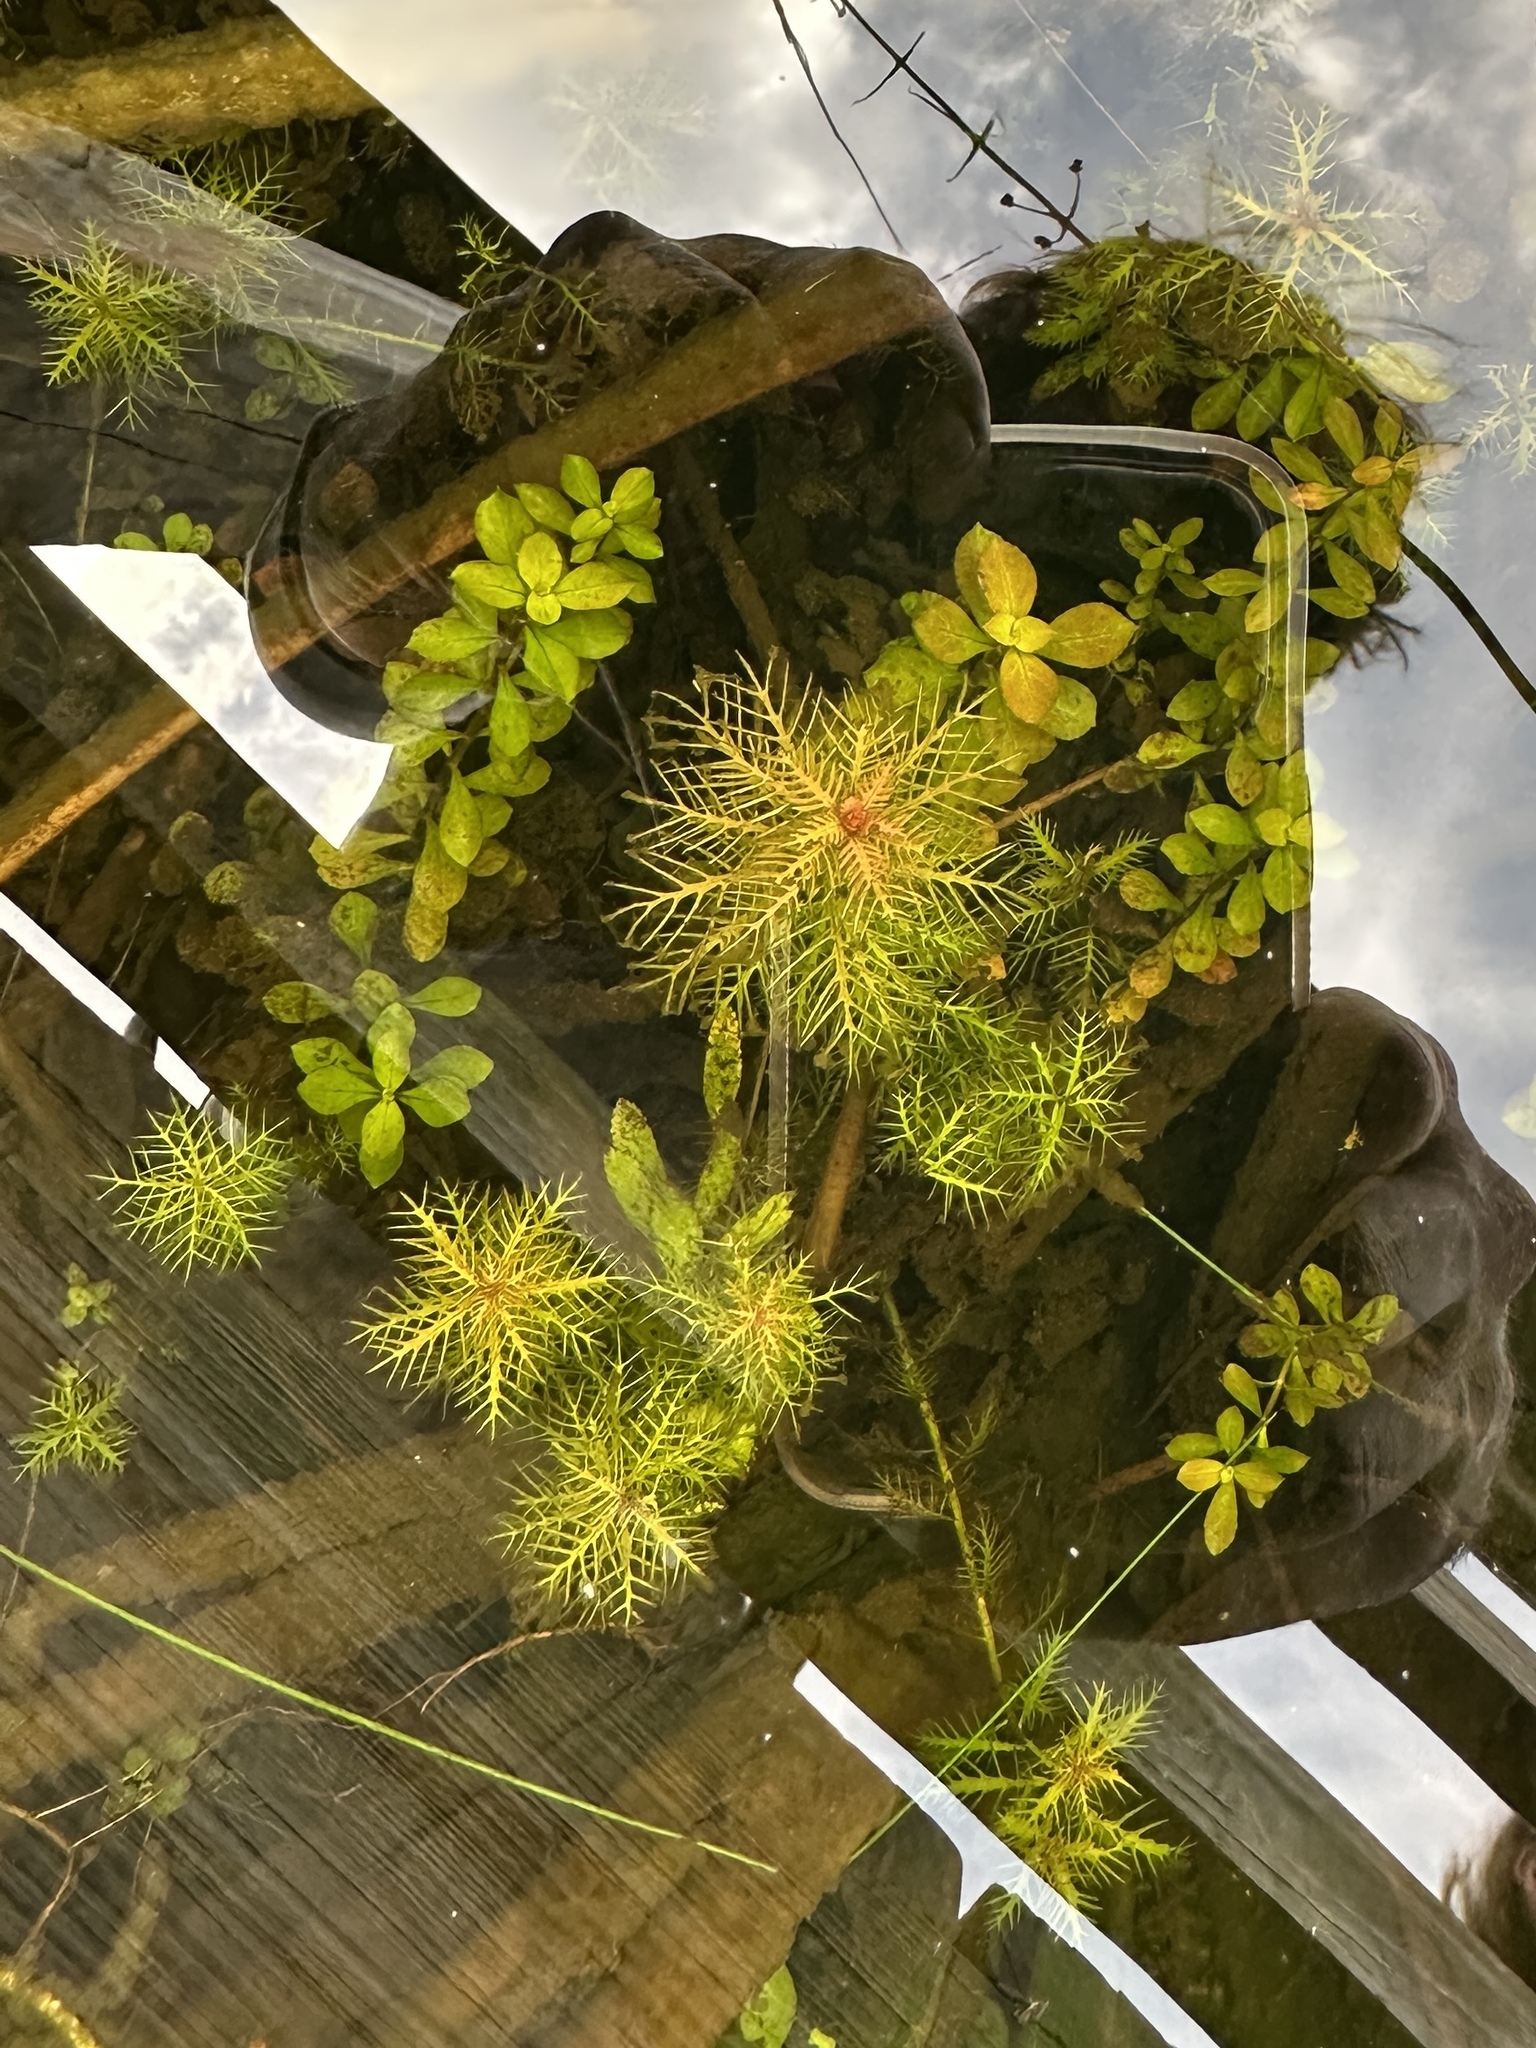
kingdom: Plantae
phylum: Tracheophyta
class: Magnoliopsida
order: Saxifragales
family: Haloragaceae
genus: Proserpinaca
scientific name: Proserpinaca palustris
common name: Marsh mermaidweed
